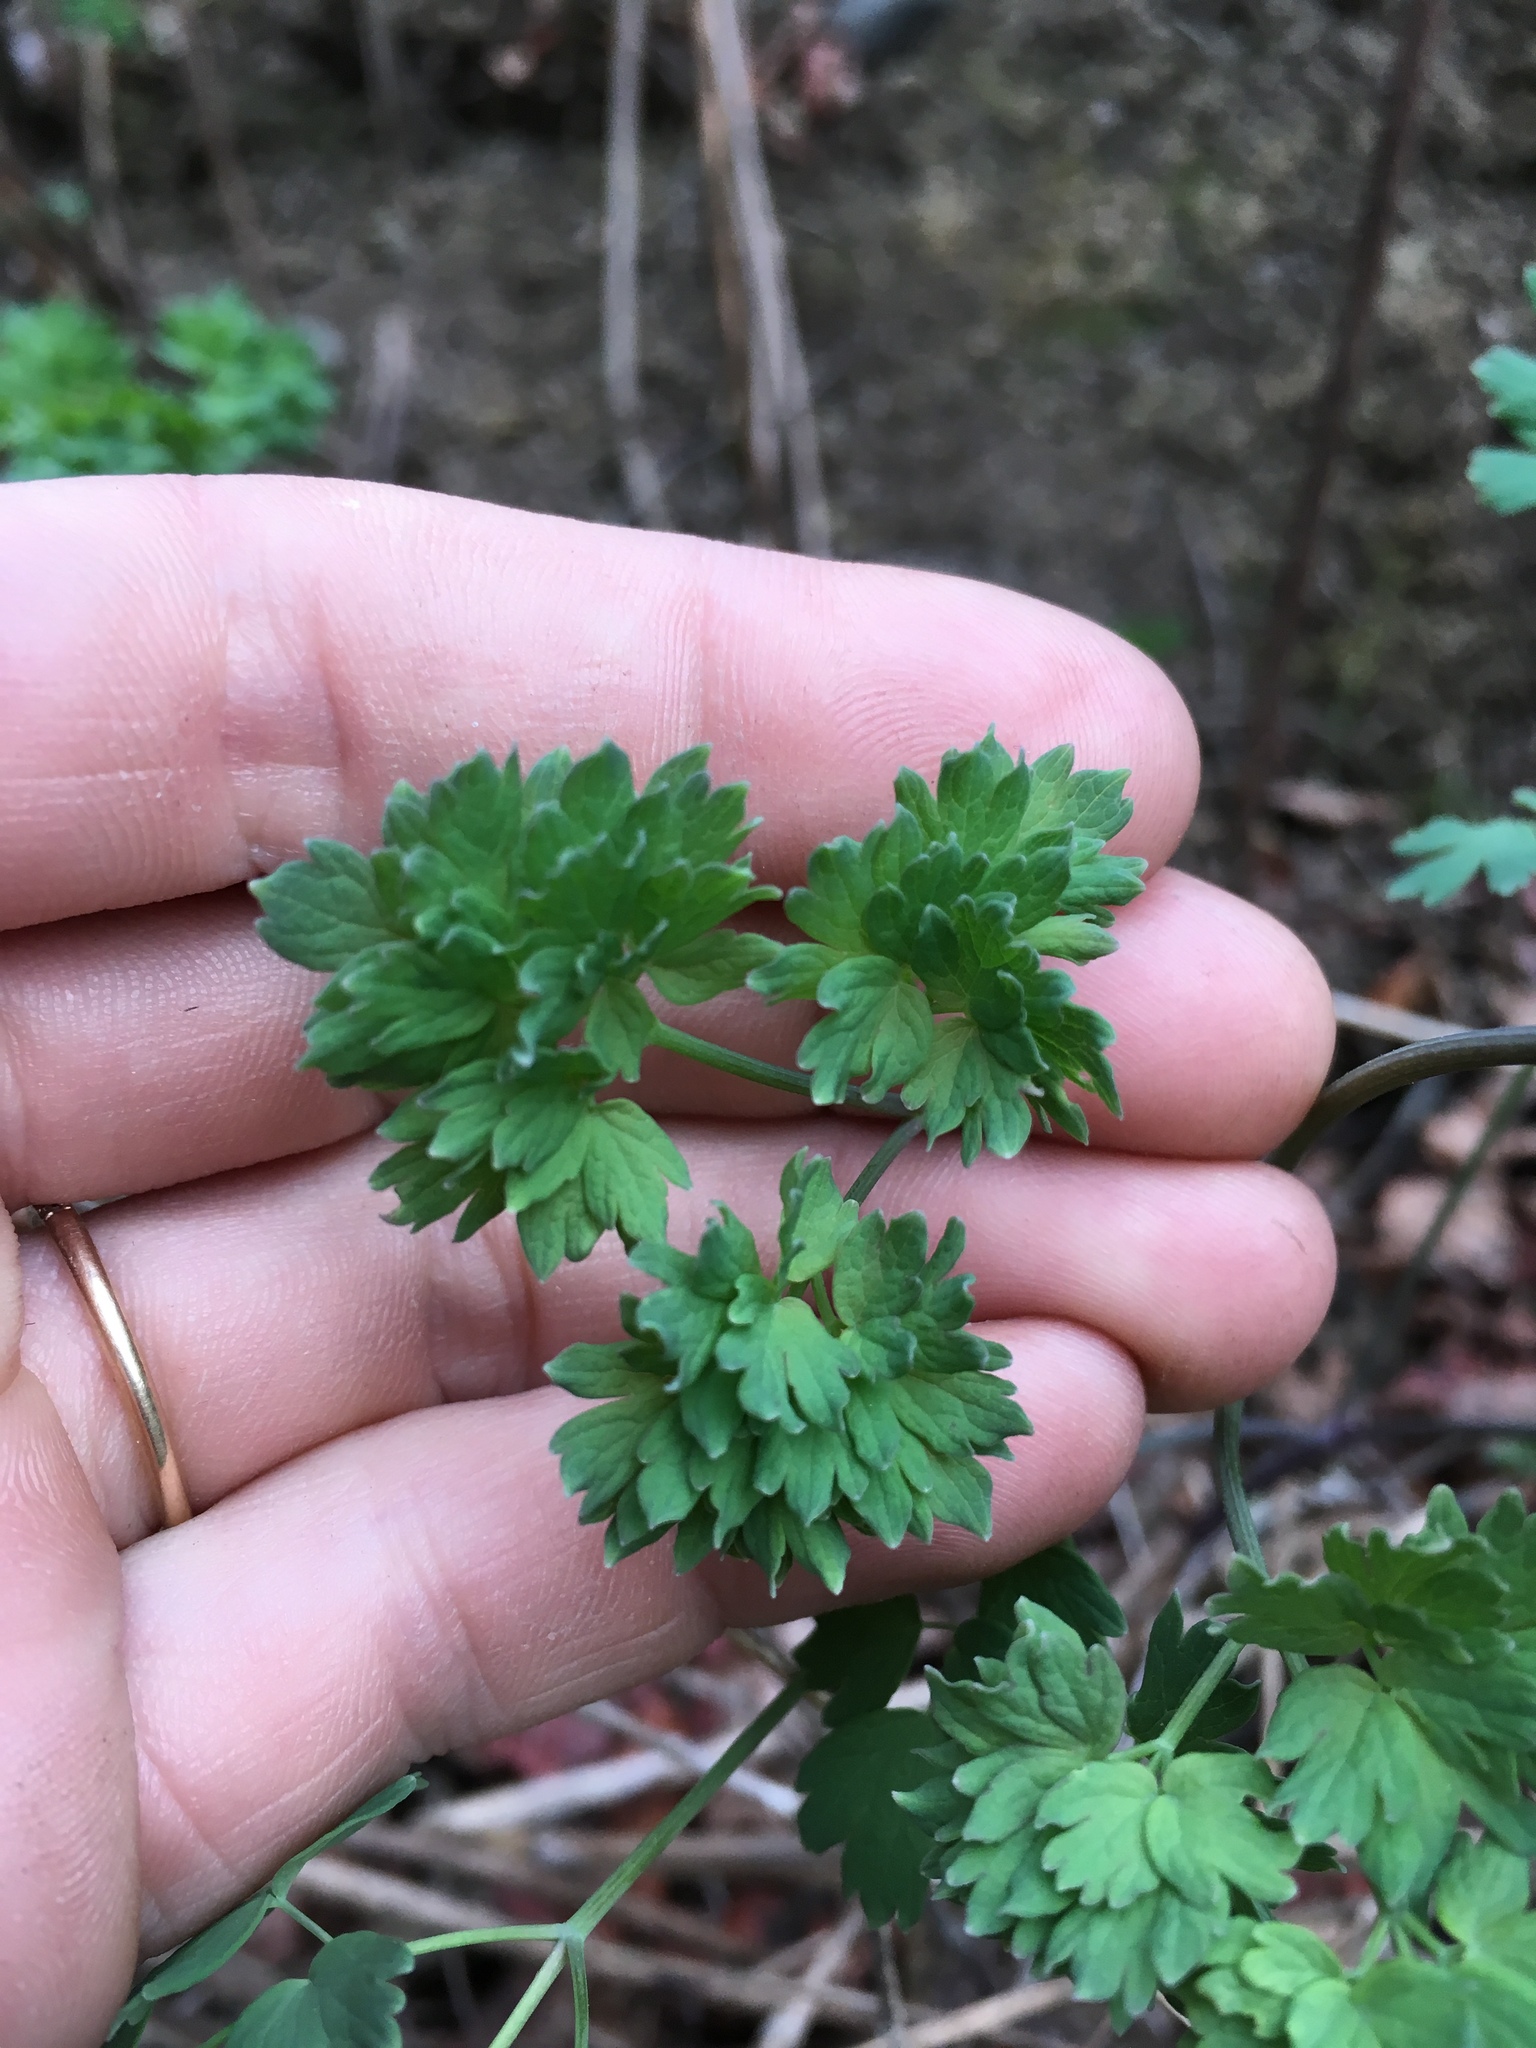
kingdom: Plantae
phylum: Tracheophyta
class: Magnoliopsida
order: Ranunculales
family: Ranunculaceae
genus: Thalictrum
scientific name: Thalictrum fendleri
